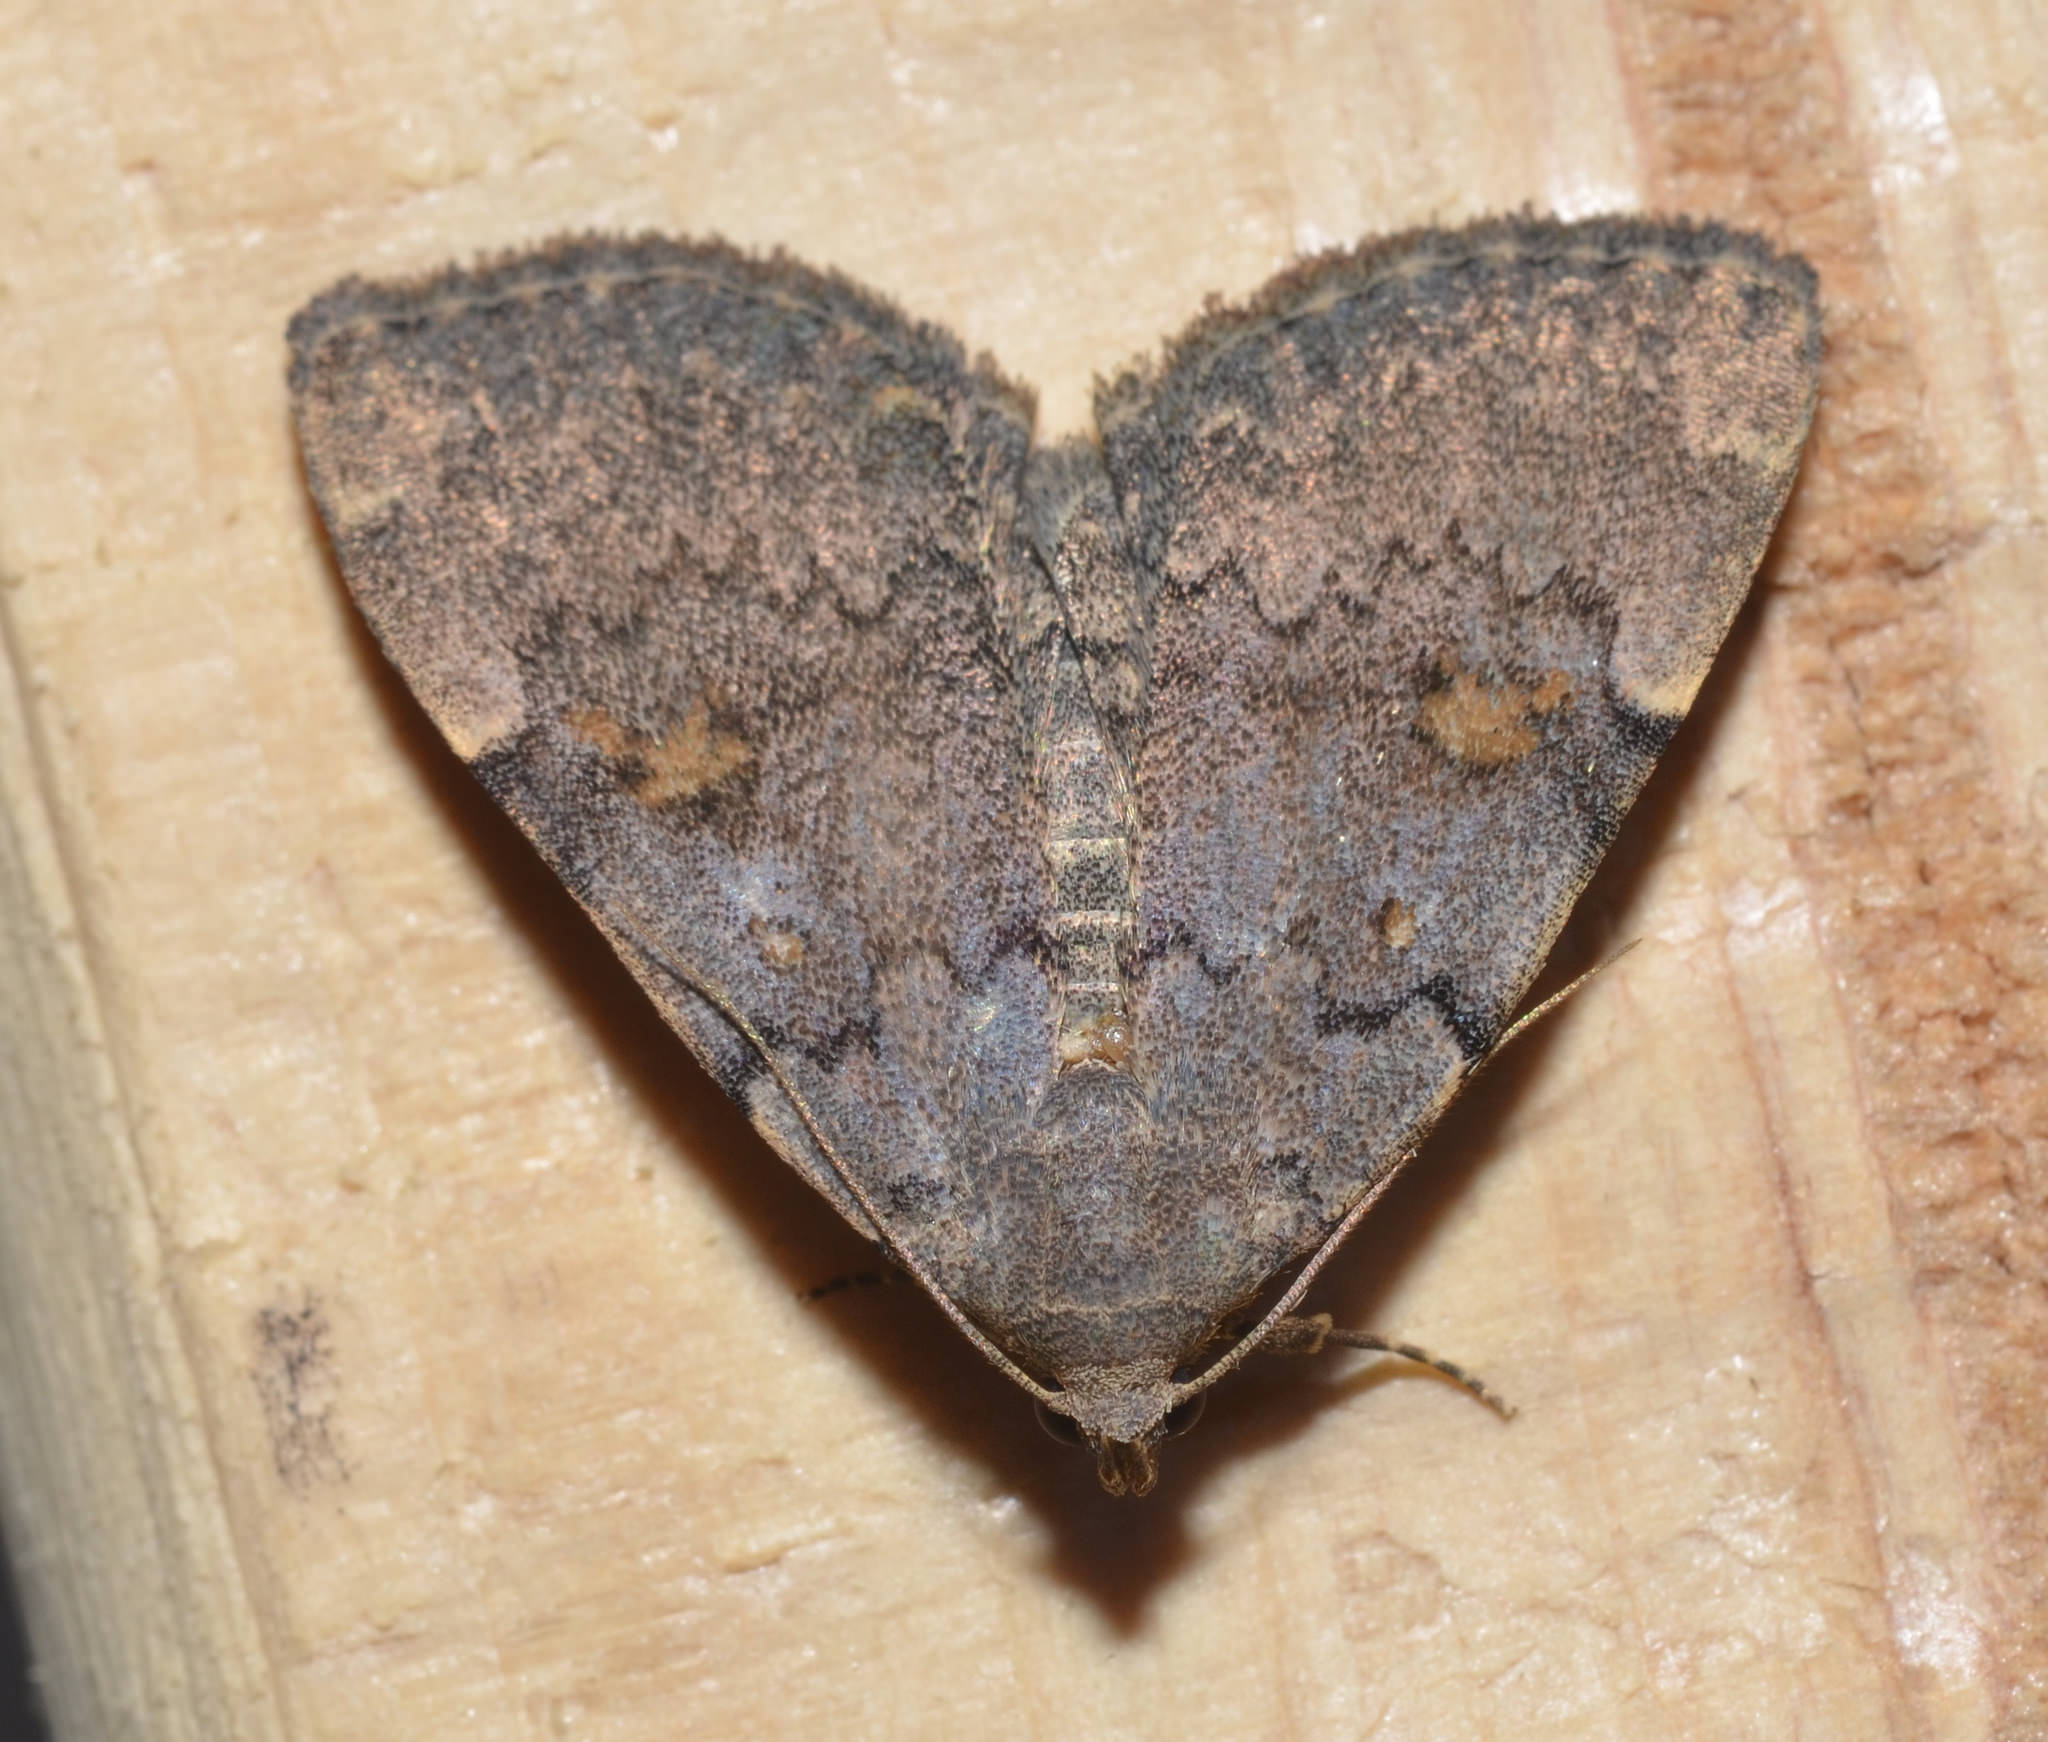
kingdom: Animalia
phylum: Arthropoda
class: Insecta
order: Lepidoptera
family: Erebidae
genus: Idia
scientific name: Idia aemula
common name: Common idia moth
